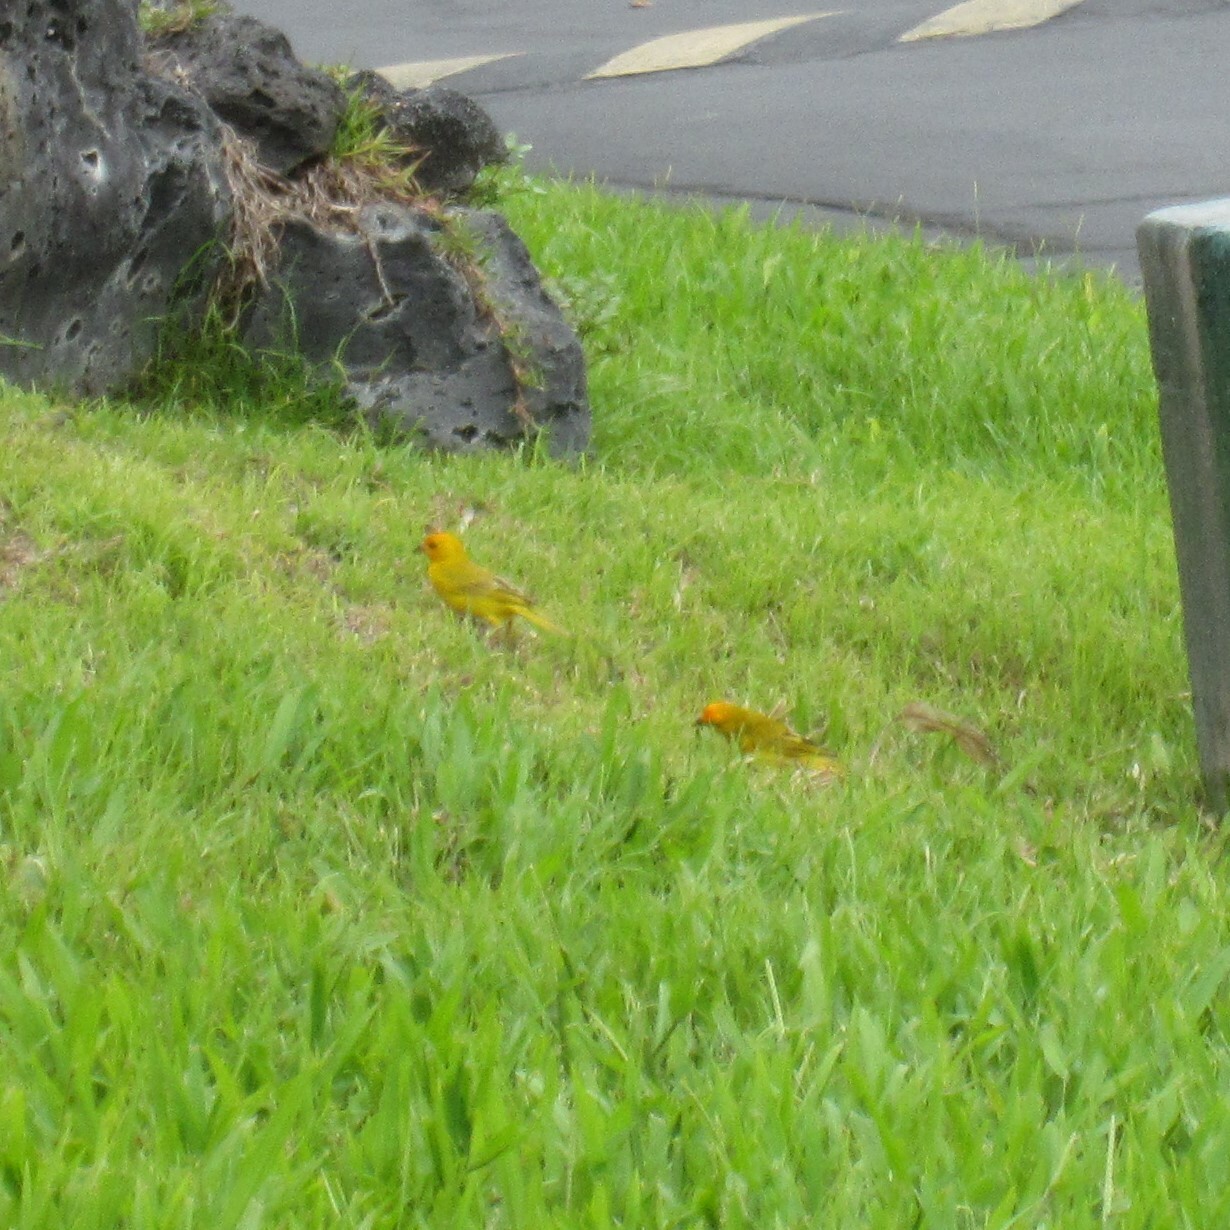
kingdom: Animalia
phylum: Chordata
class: Aves
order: Passeriformes
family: Thraupidae
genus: Sicalis
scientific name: Sicalis flaveola
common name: Saffron finch
